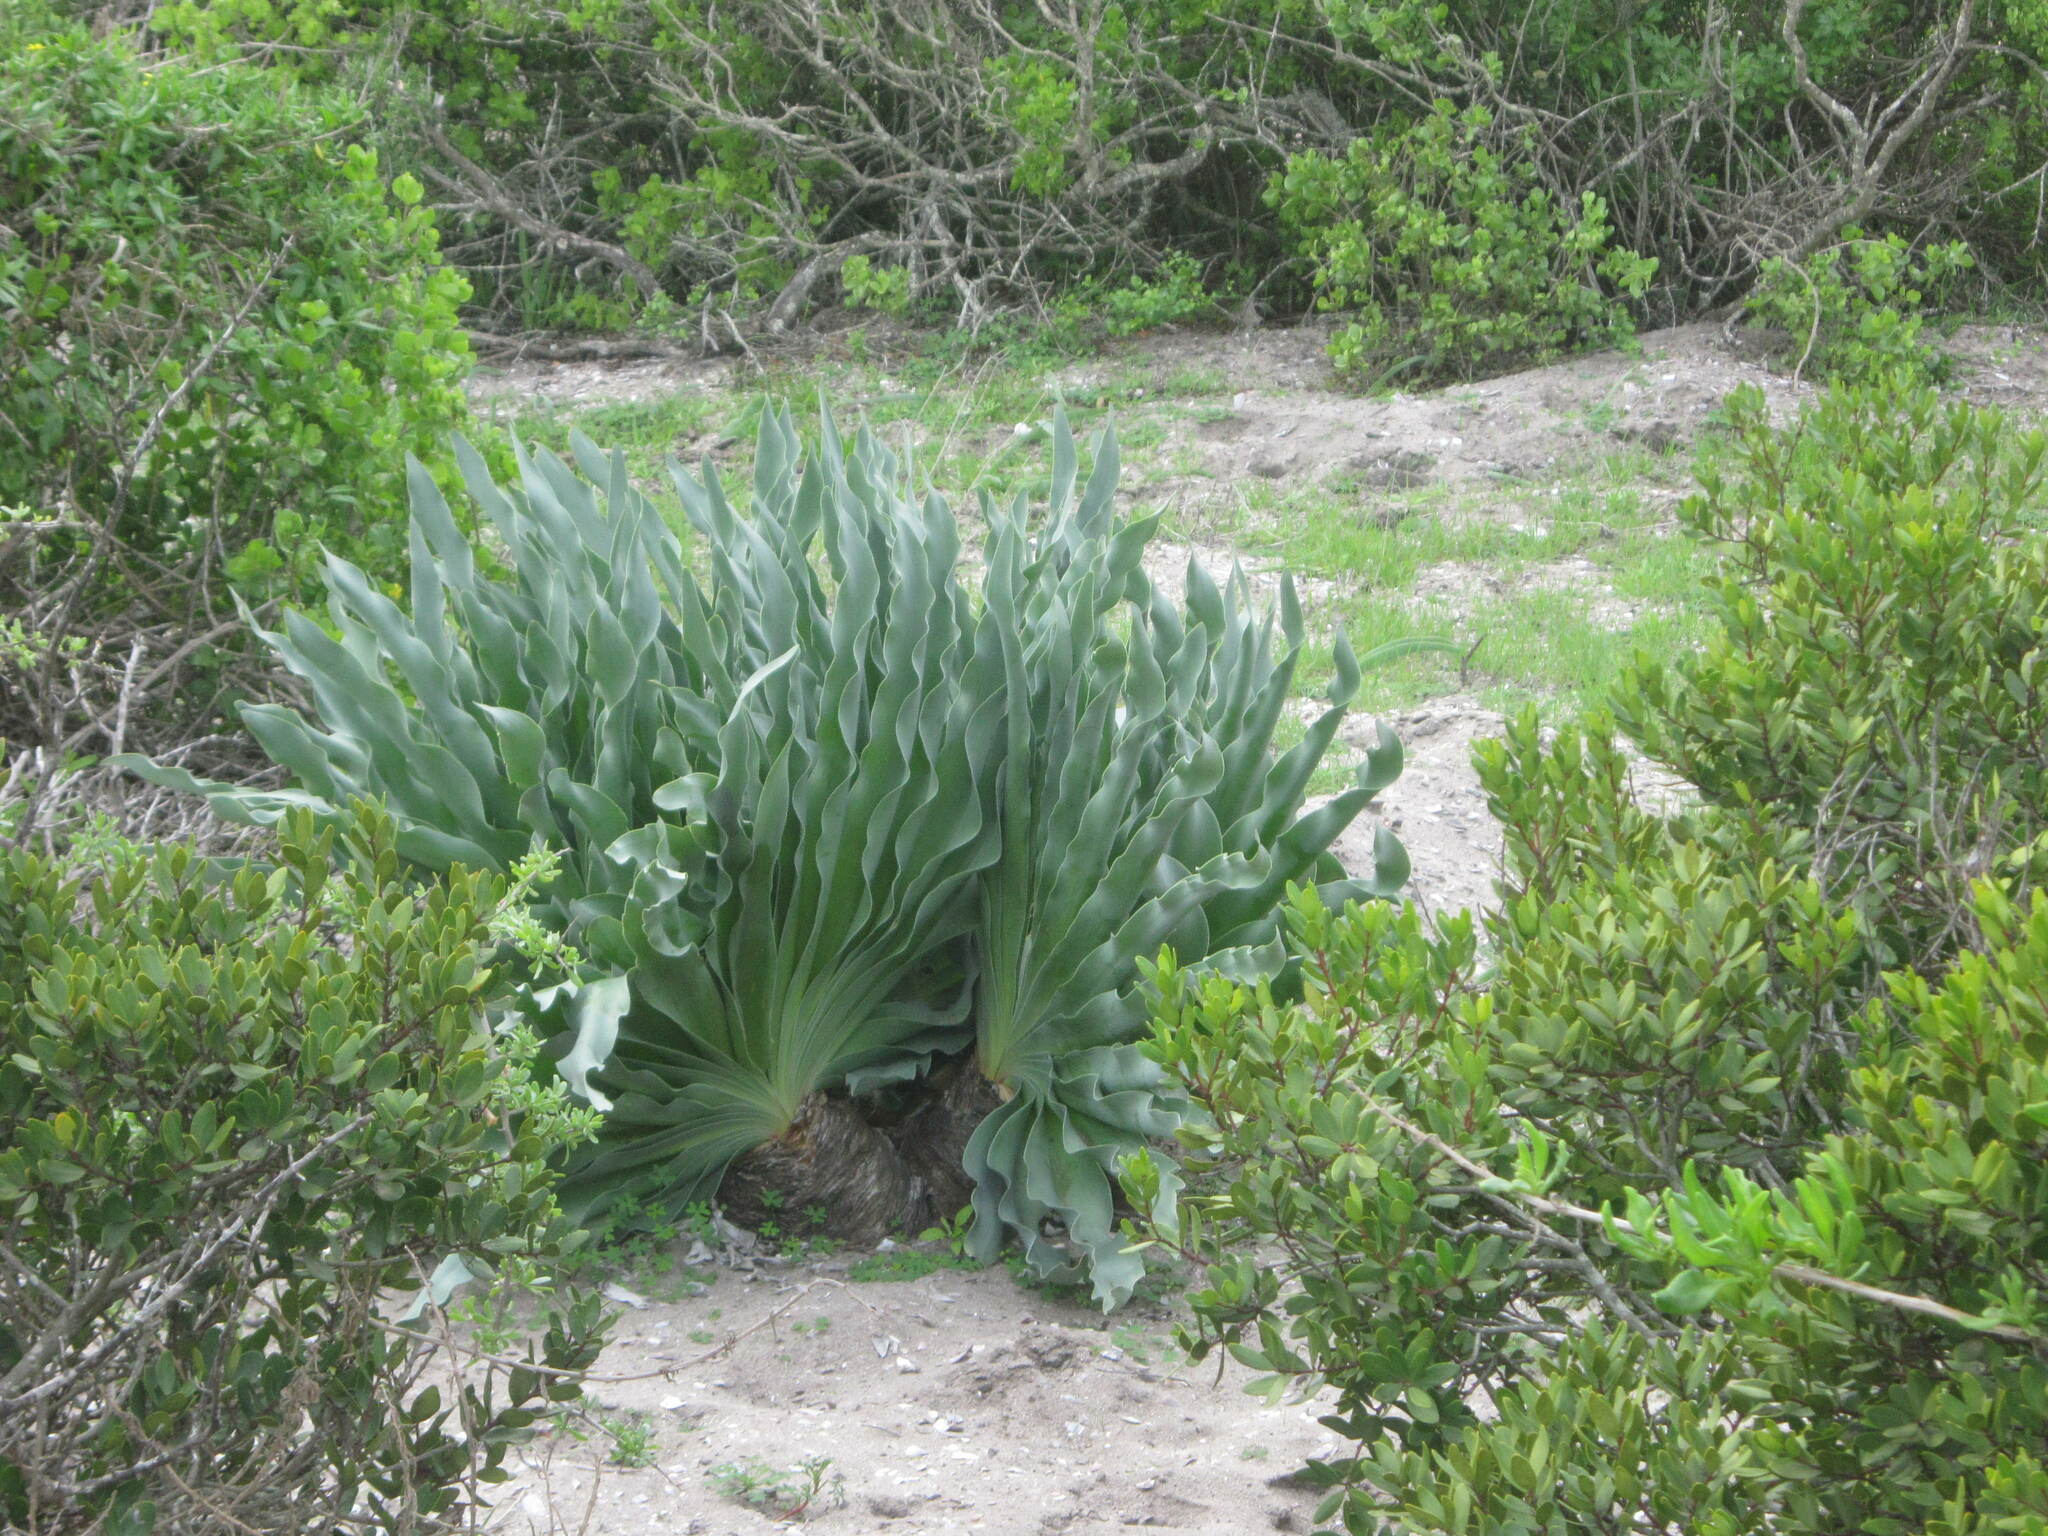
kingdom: Plantae
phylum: Tracheophyta
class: Liliopsida
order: Asparagales
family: Amaryllidaceae
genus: Boophone
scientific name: Boophone haemanthoides
